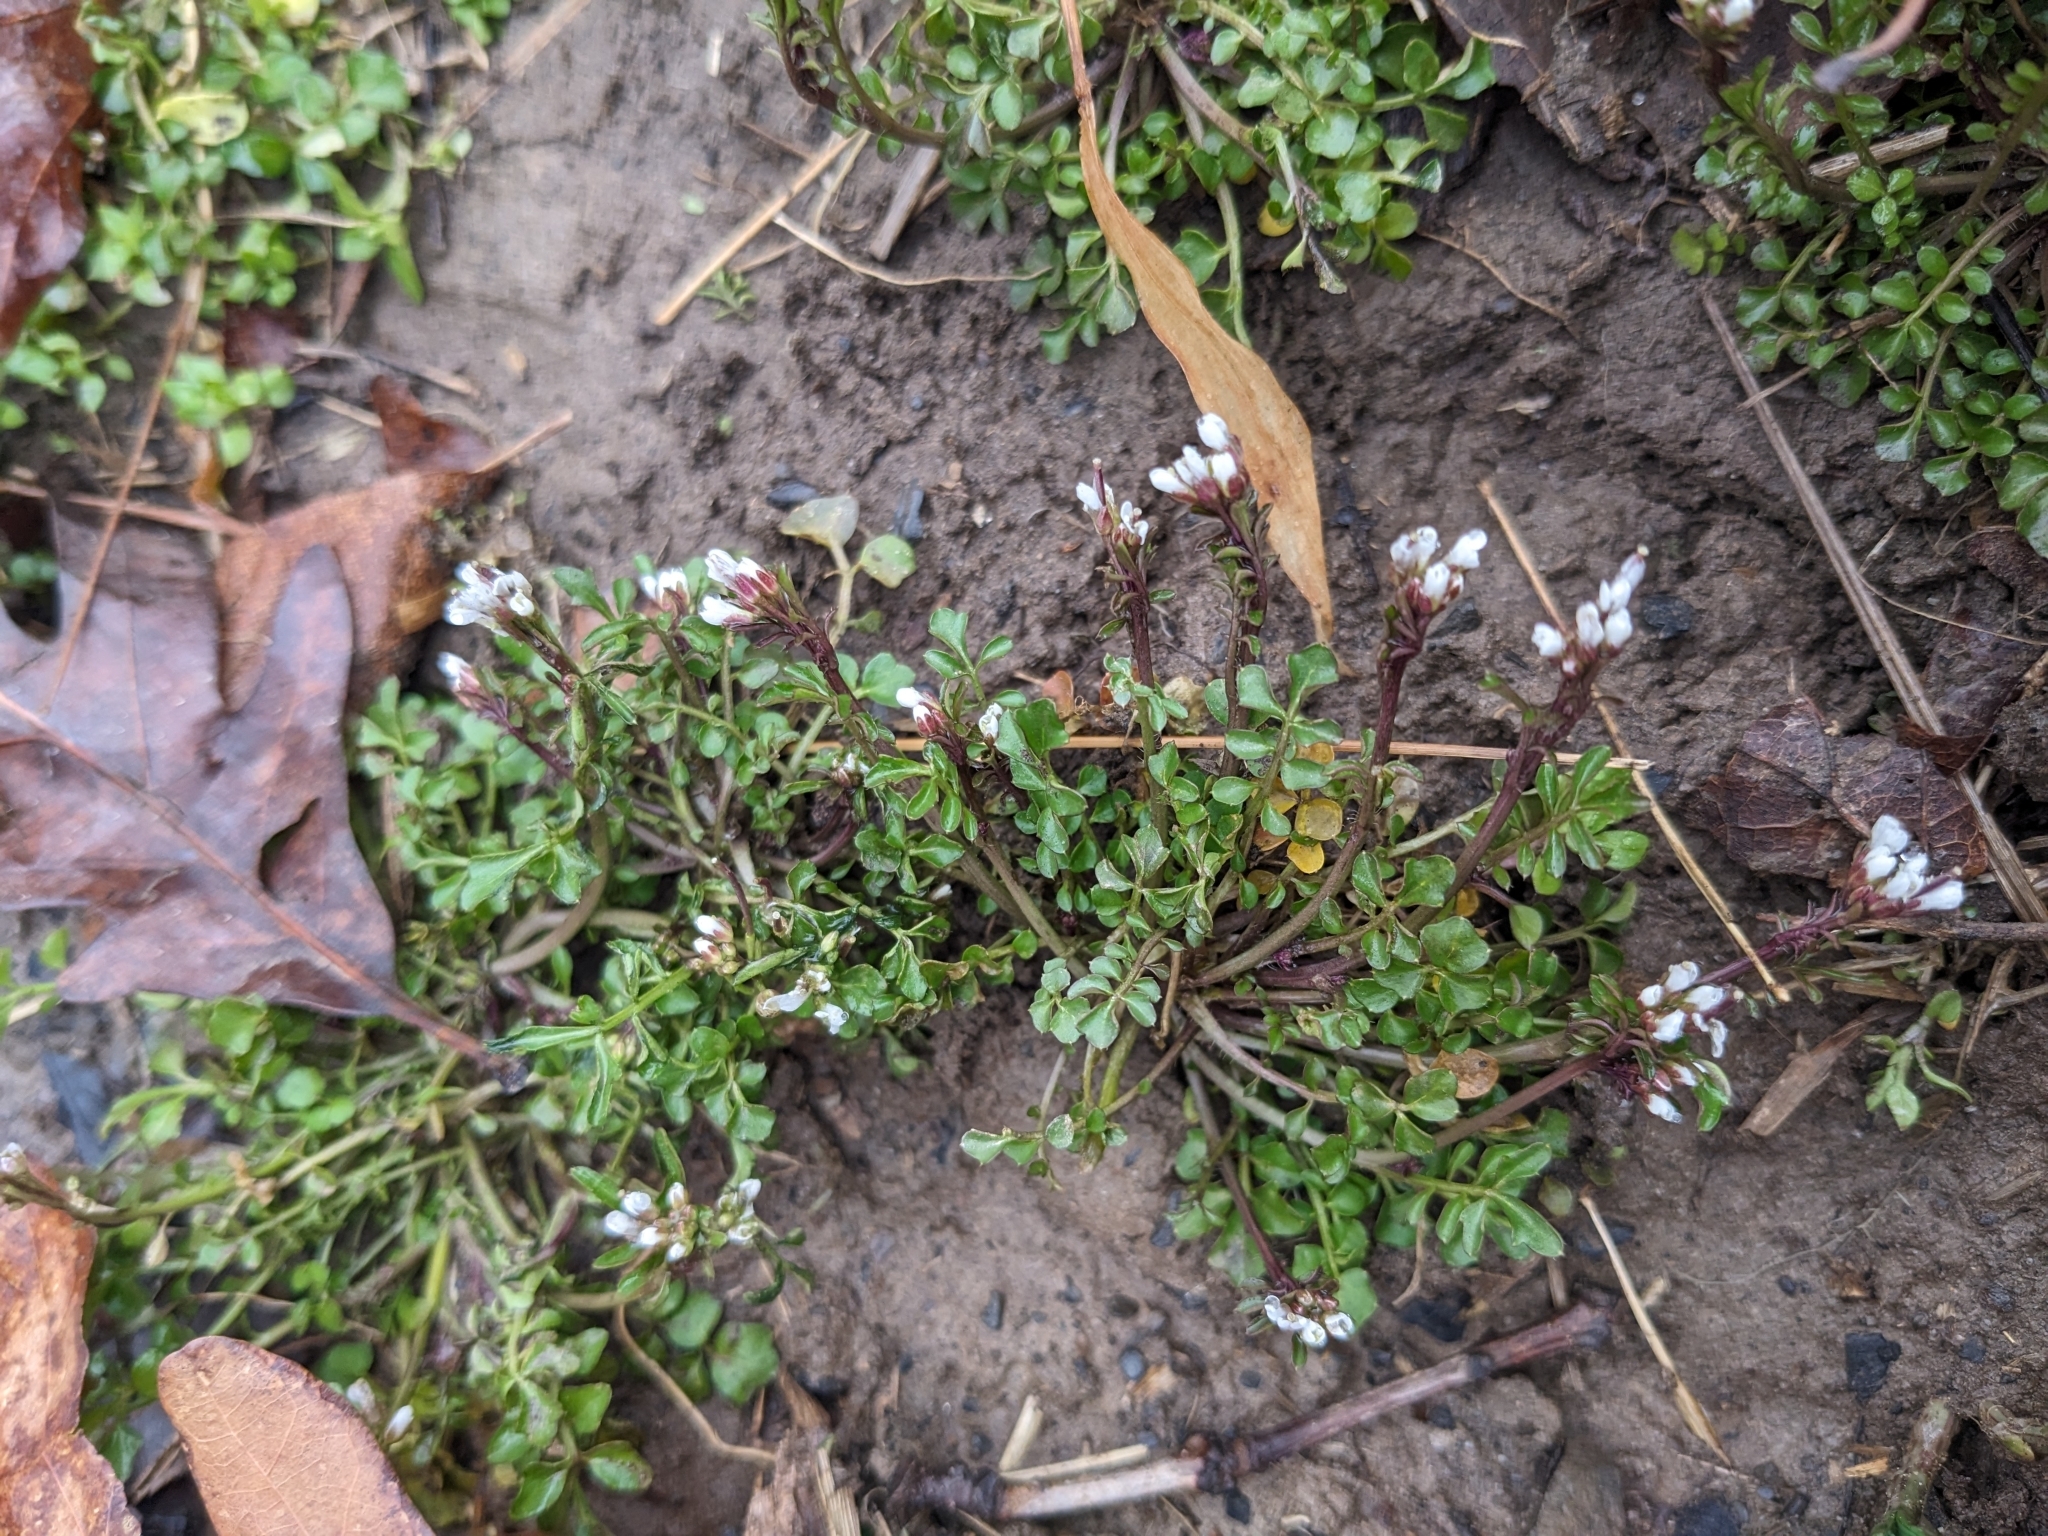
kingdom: Plantae
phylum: Tracheophyta
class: Magnoliopsida
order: Brassicales
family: Brassicaceae
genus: Cardamine
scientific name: Cardamine hirsuta
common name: Hairy bittercress
